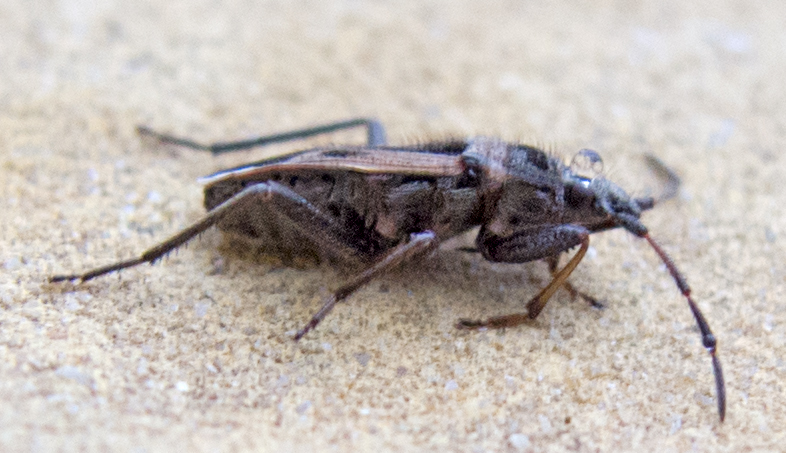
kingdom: Animalia
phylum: Arthropoda
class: Insecta
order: Hemiptera
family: Rhyparochromidae
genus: Lasiocoris
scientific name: Lasiocoris anomalus
